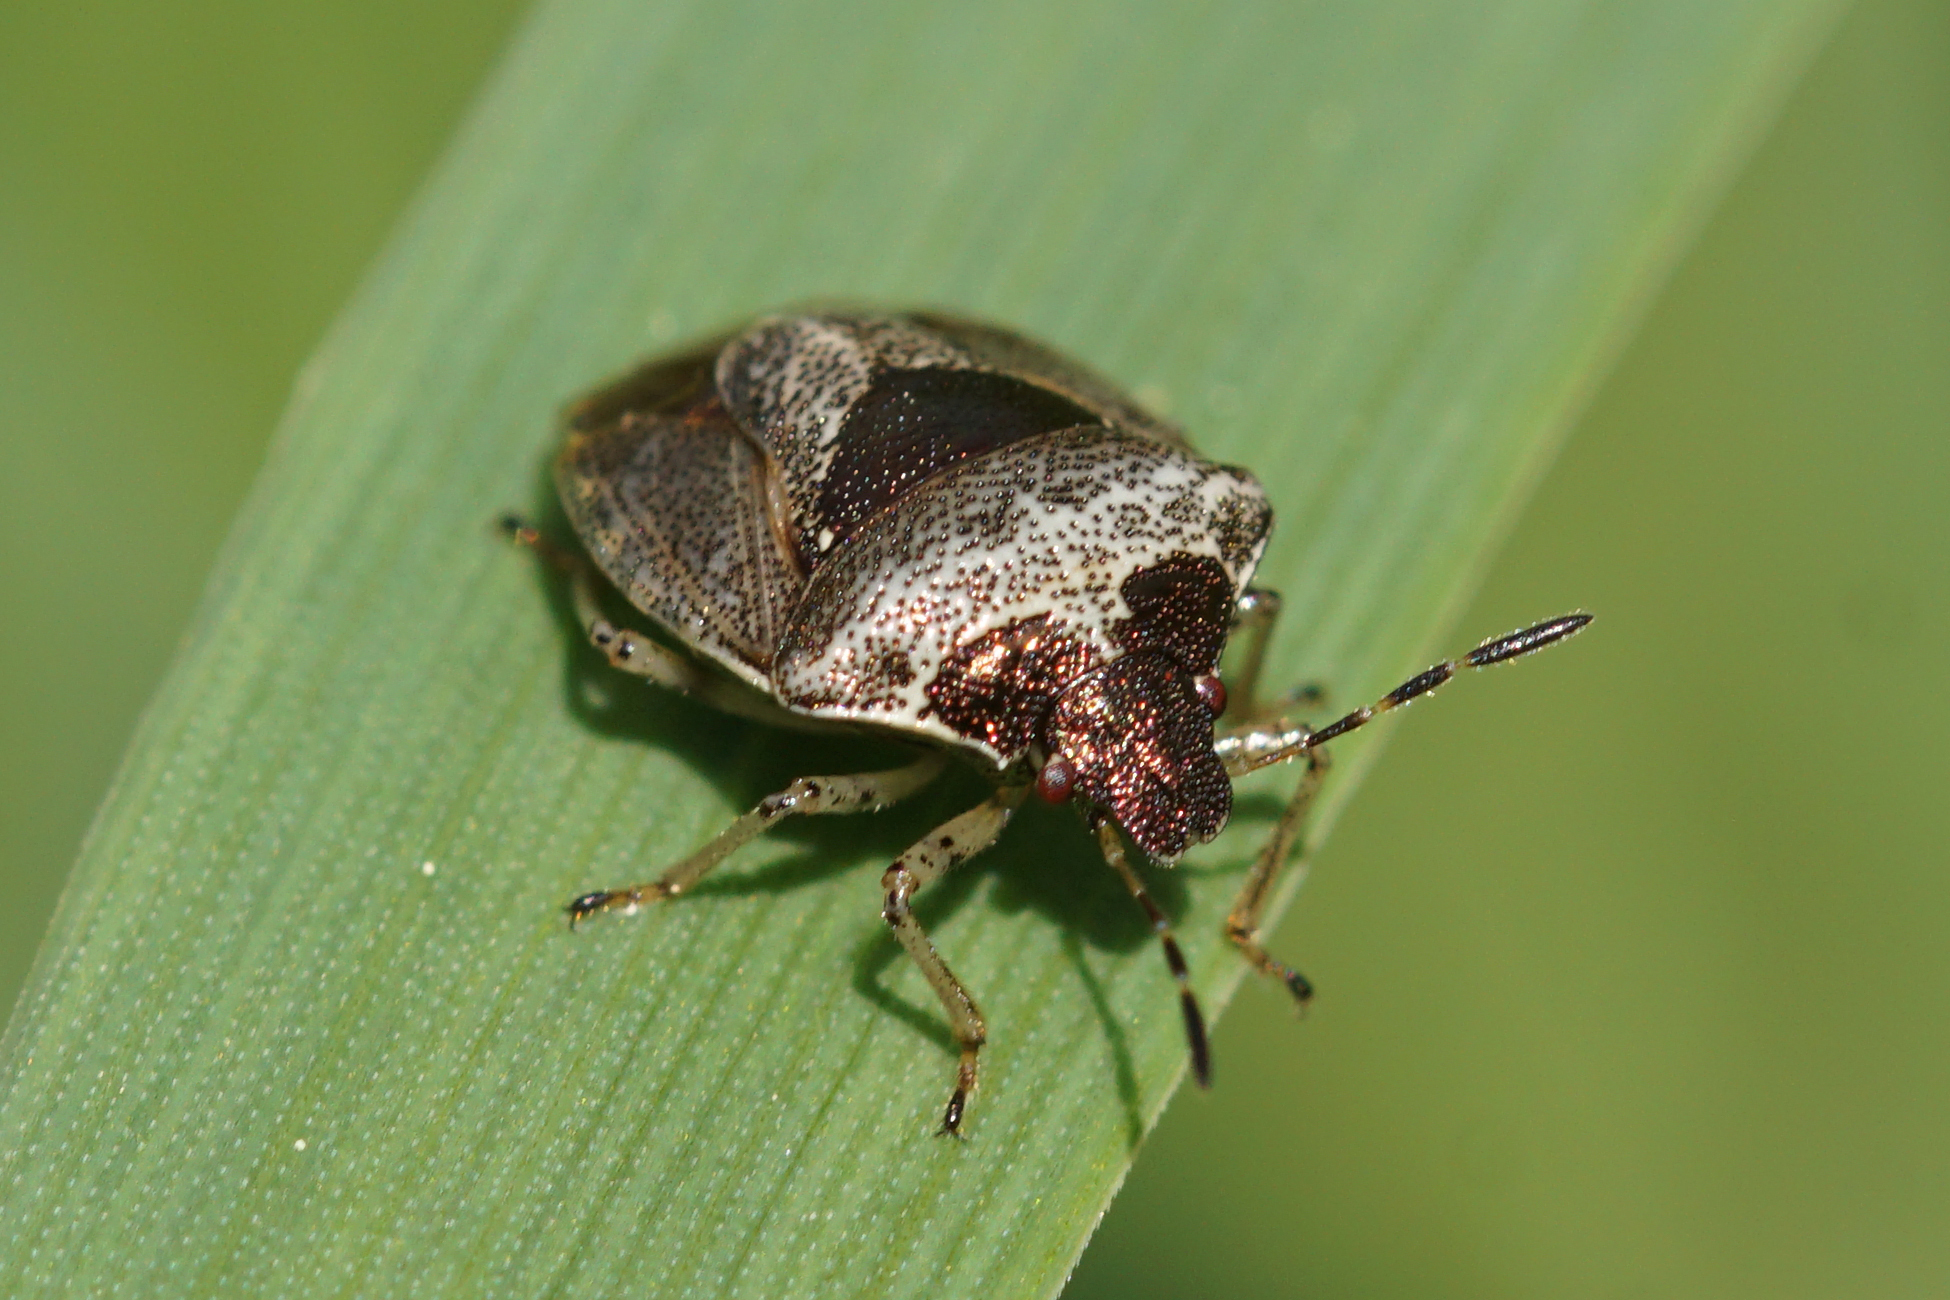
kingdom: Animalia
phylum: Arthropoda
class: Insecta
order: Hemiptera
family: Pentatomidae
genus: Eysarcoris
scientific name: Eysarcoris venustissimus
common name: Woundwort shieldbug
